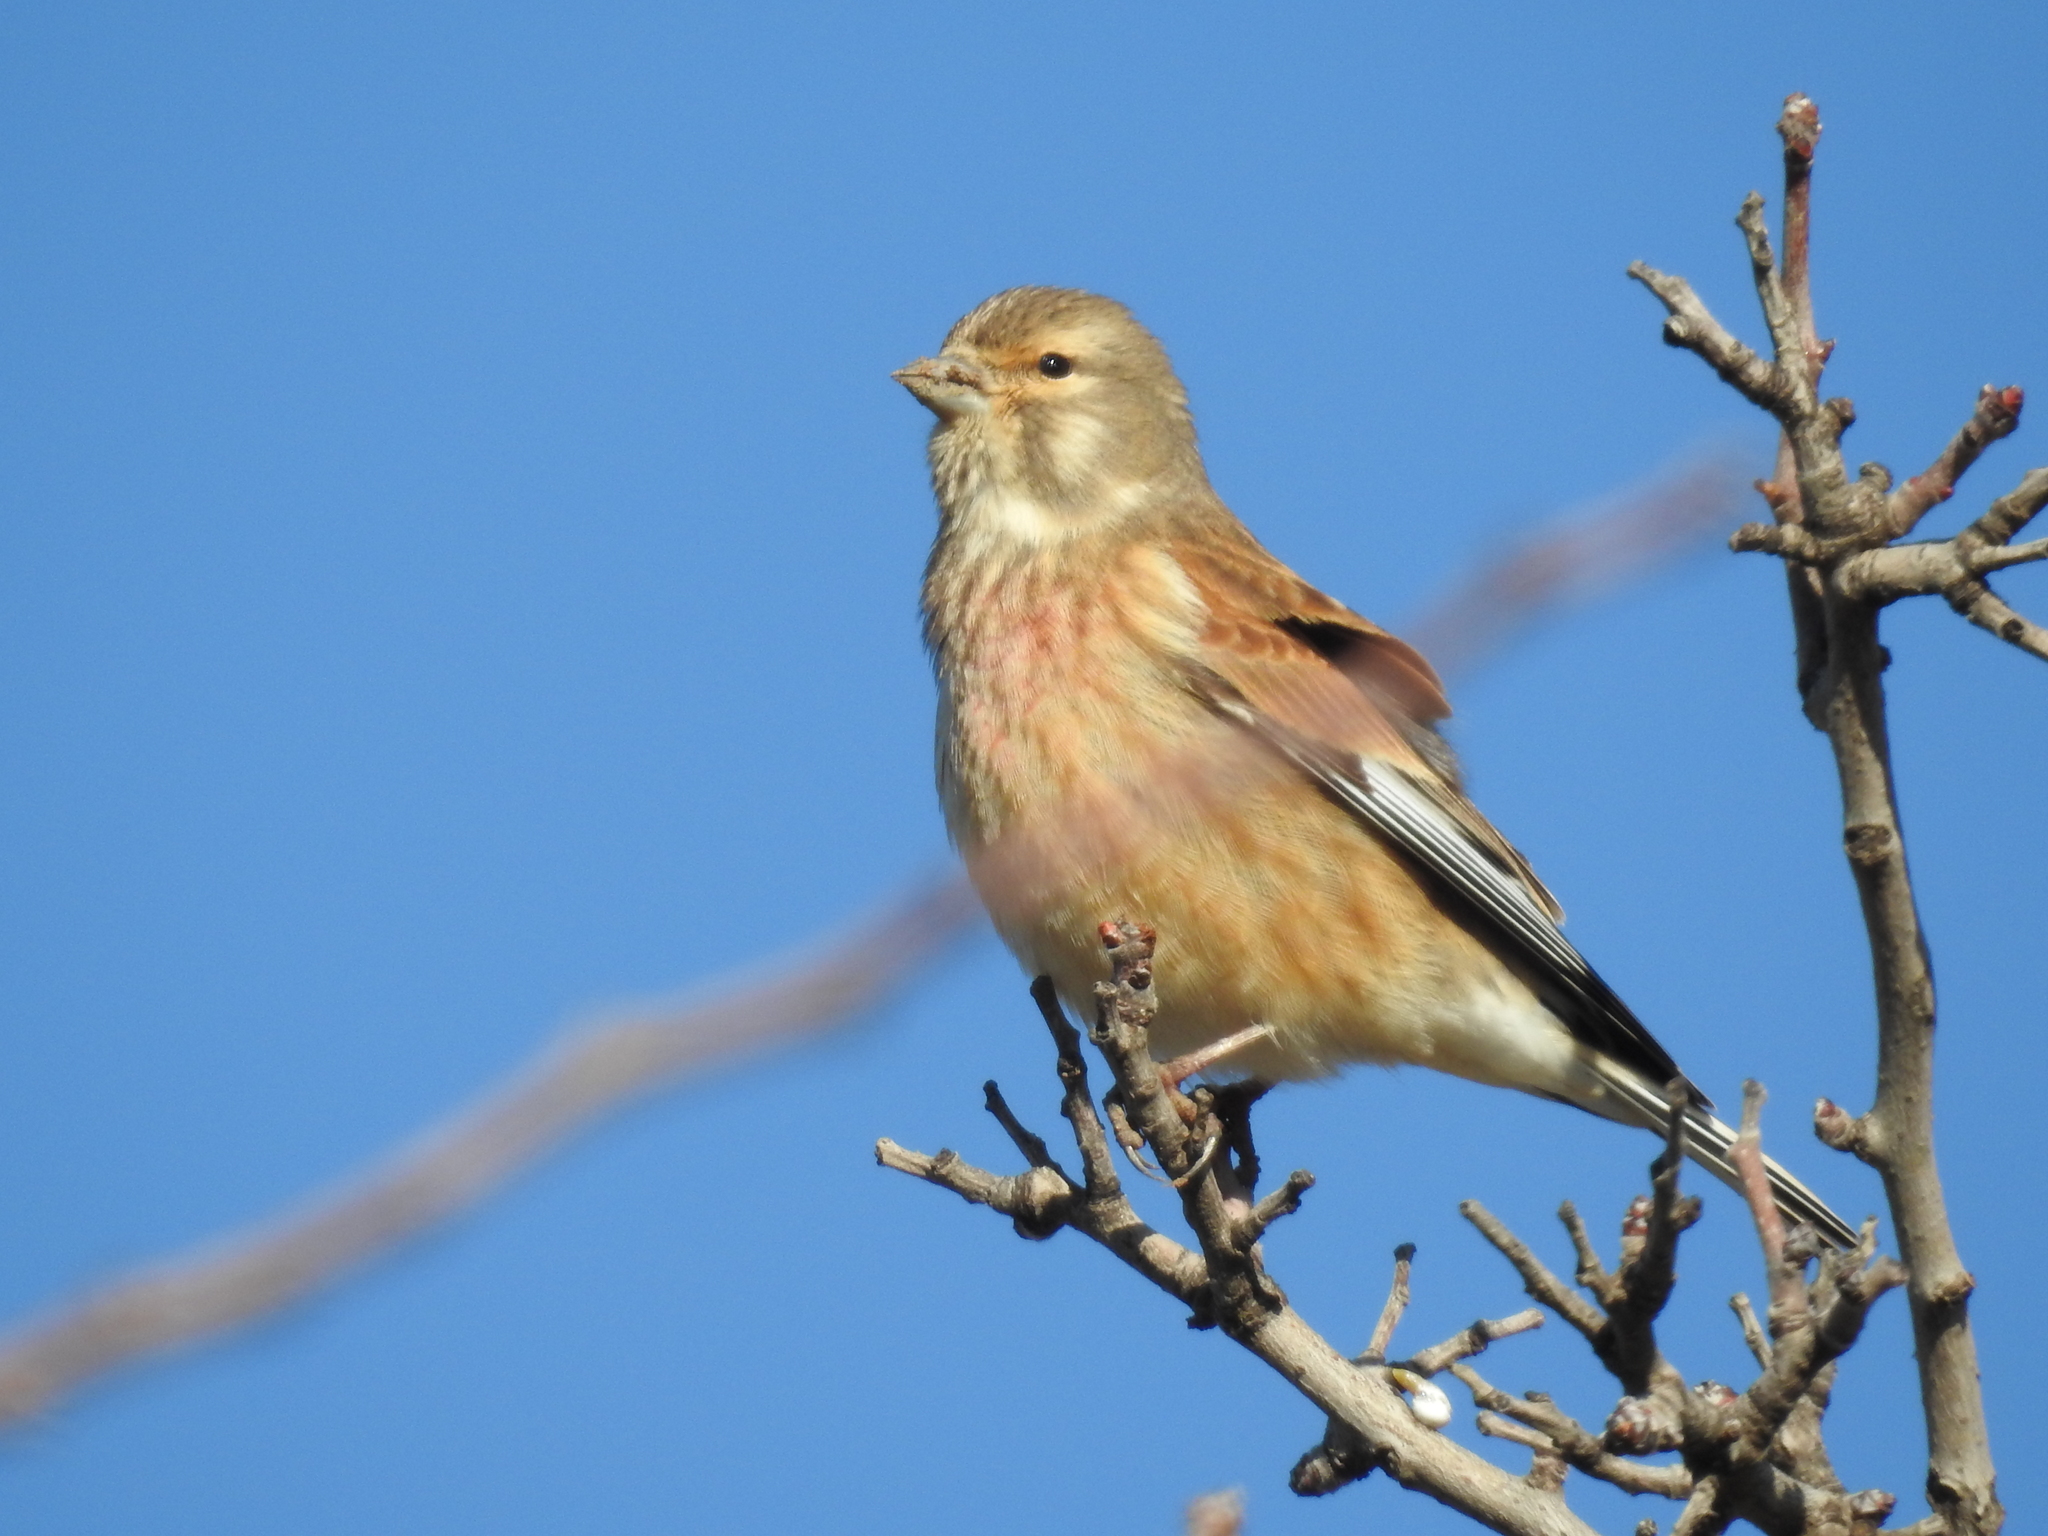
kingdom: Animalia
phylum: Chordata
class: Aves
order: Passeriformes
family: Fringillidae
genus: Linaria
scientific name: Linaria cannabina
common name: Common linnet
